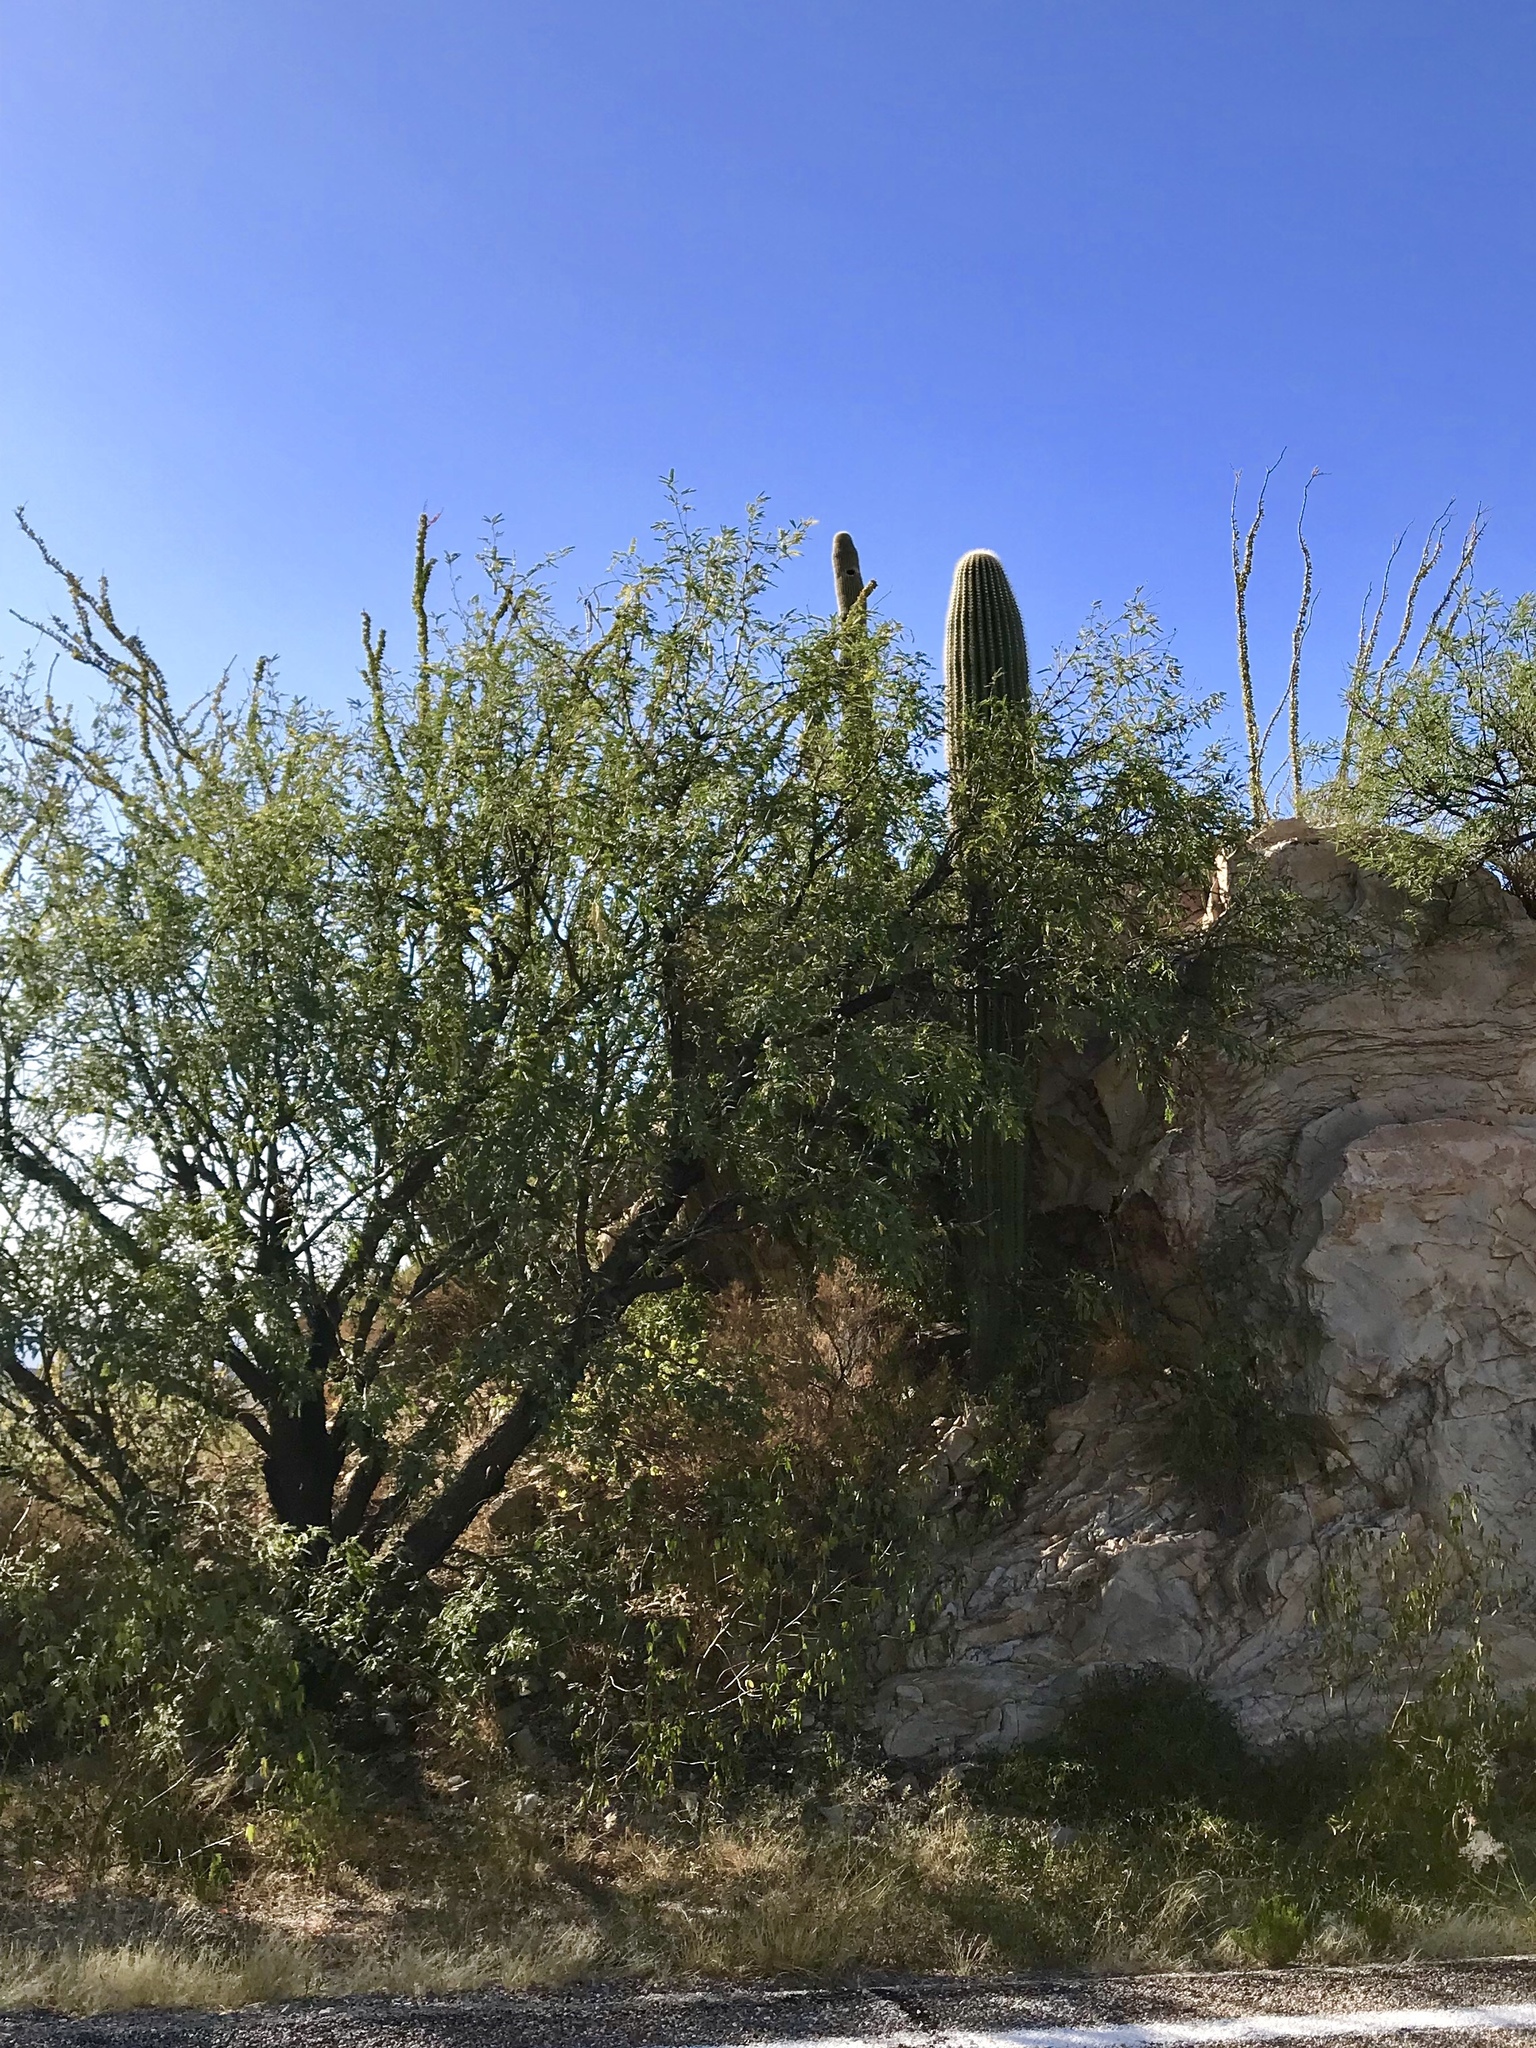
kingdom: Plantae
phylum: Tracheophyta
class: Magnoliopsida
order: Fabales
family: Fabaceae
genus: Prosopis
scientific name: Prosopis velutina
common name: Velvet mesquite
